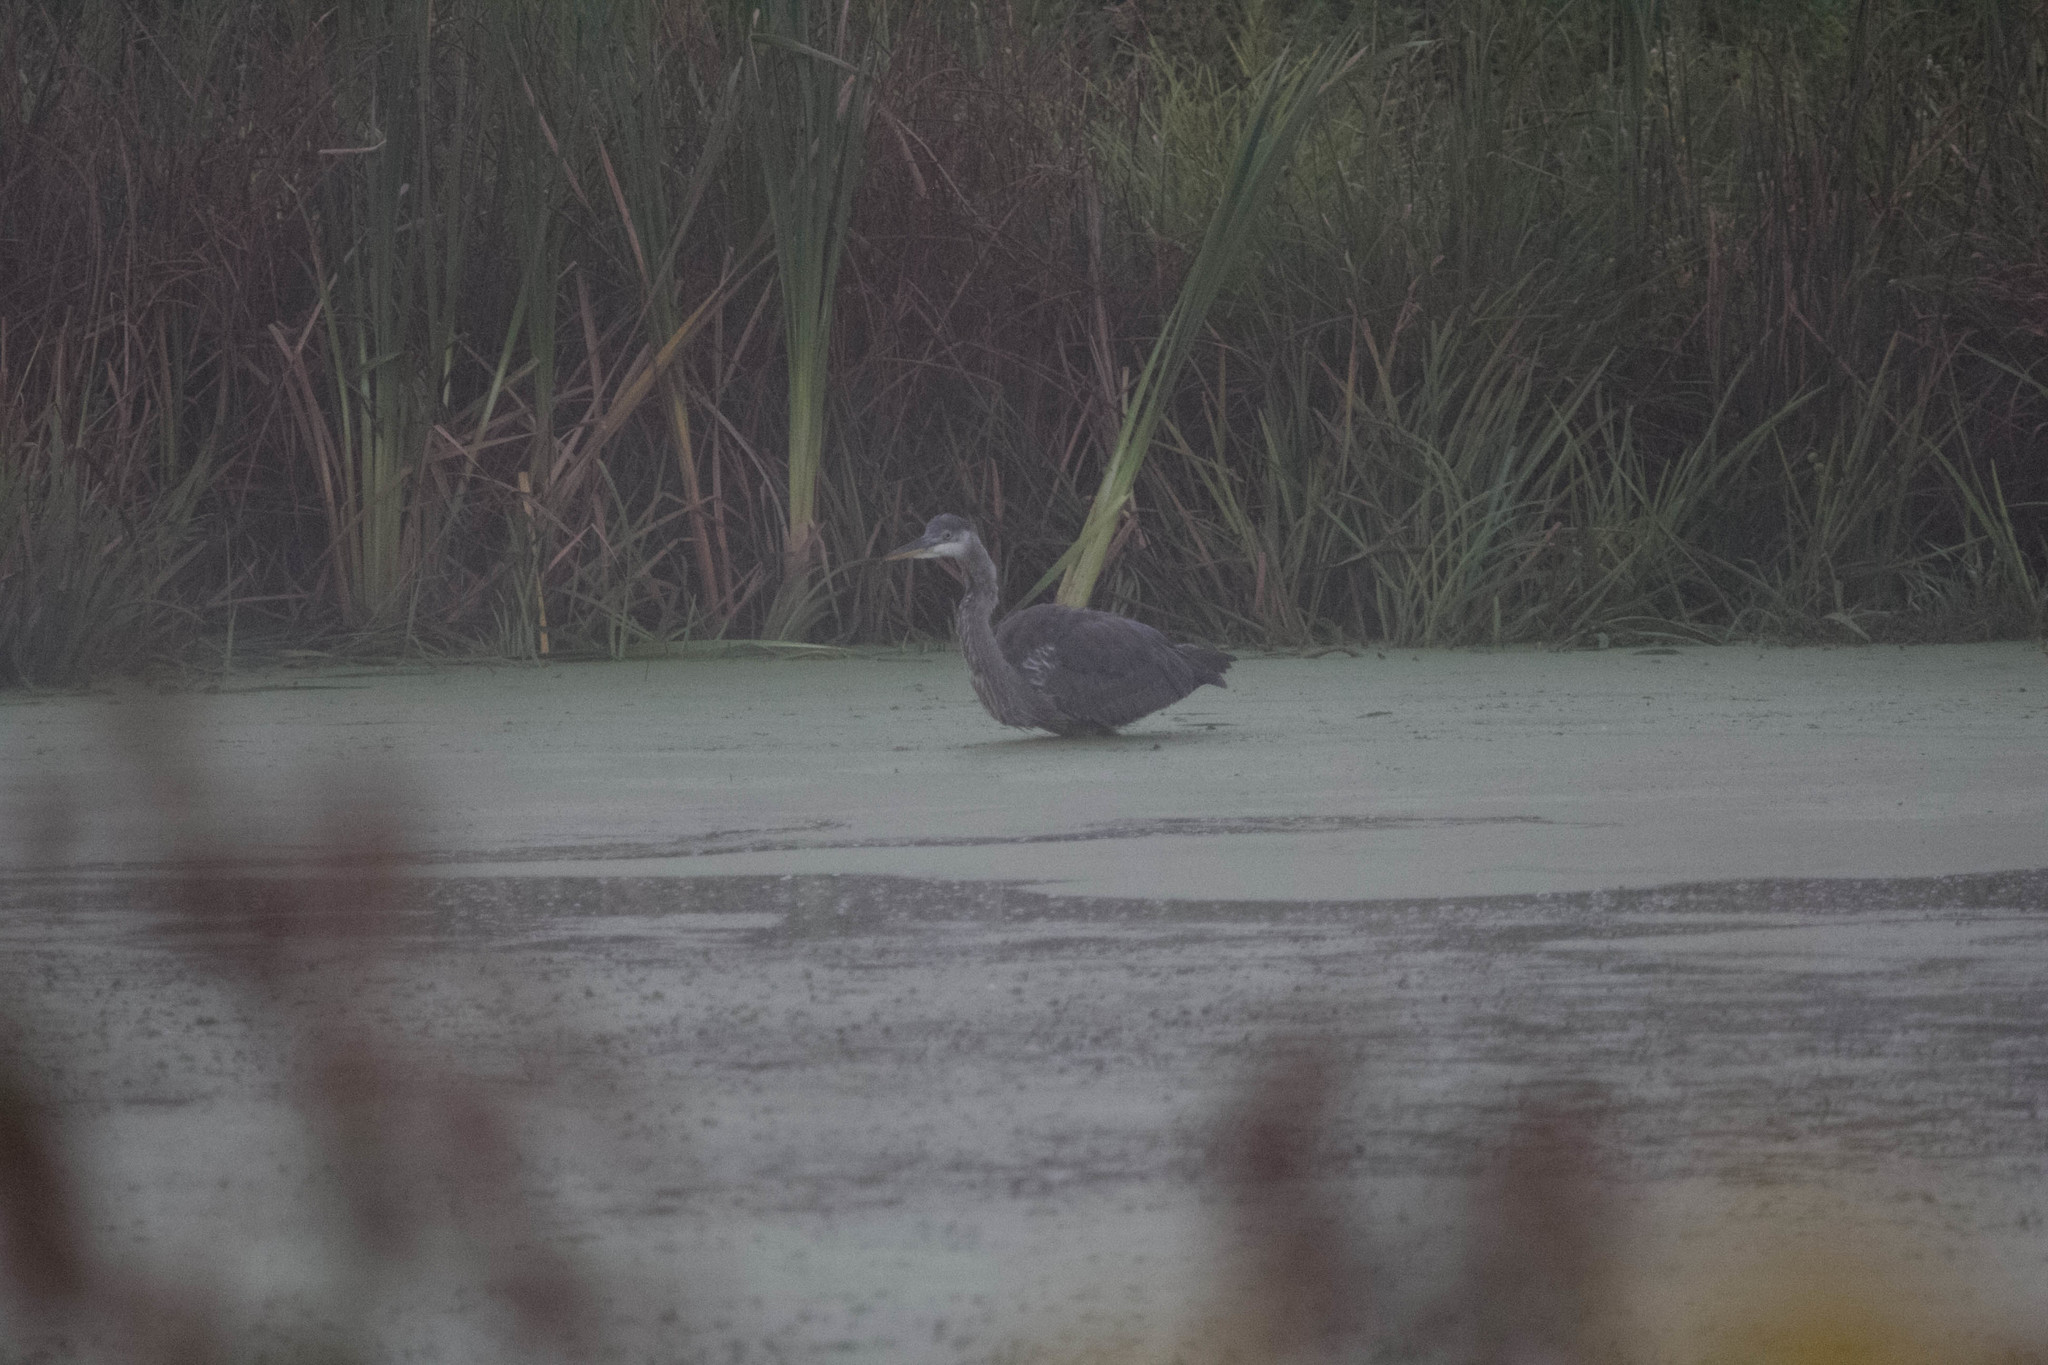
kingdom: Animalia
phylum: Chordata
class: Aves
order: Pelecaniformes
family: Ardeidae
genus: Ardea
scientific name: Ardea herodias
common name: Great blue heron
